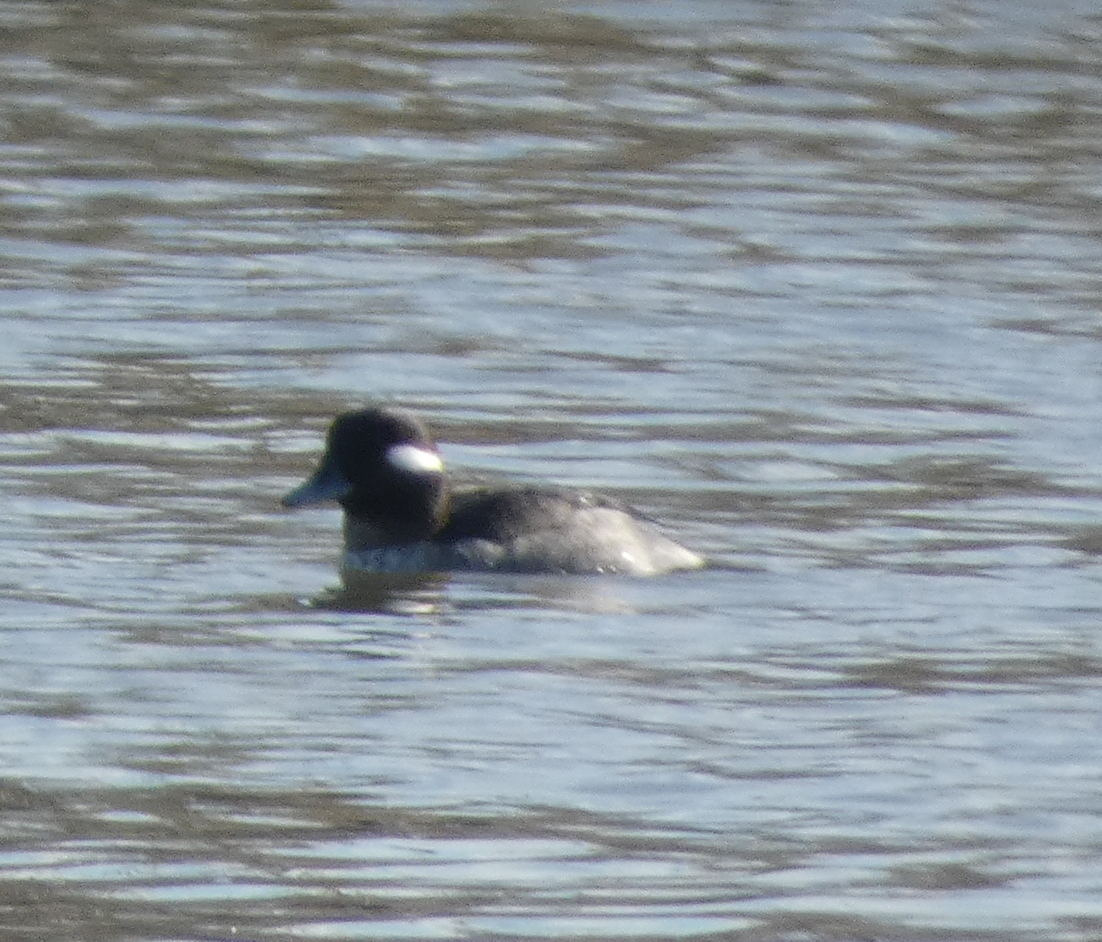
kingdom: Animalia
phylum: Chordata
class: Aves
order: Anseriformes
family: Anatidae
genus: Bucephala
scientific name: Bucephala albeola
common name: Bufflehead
